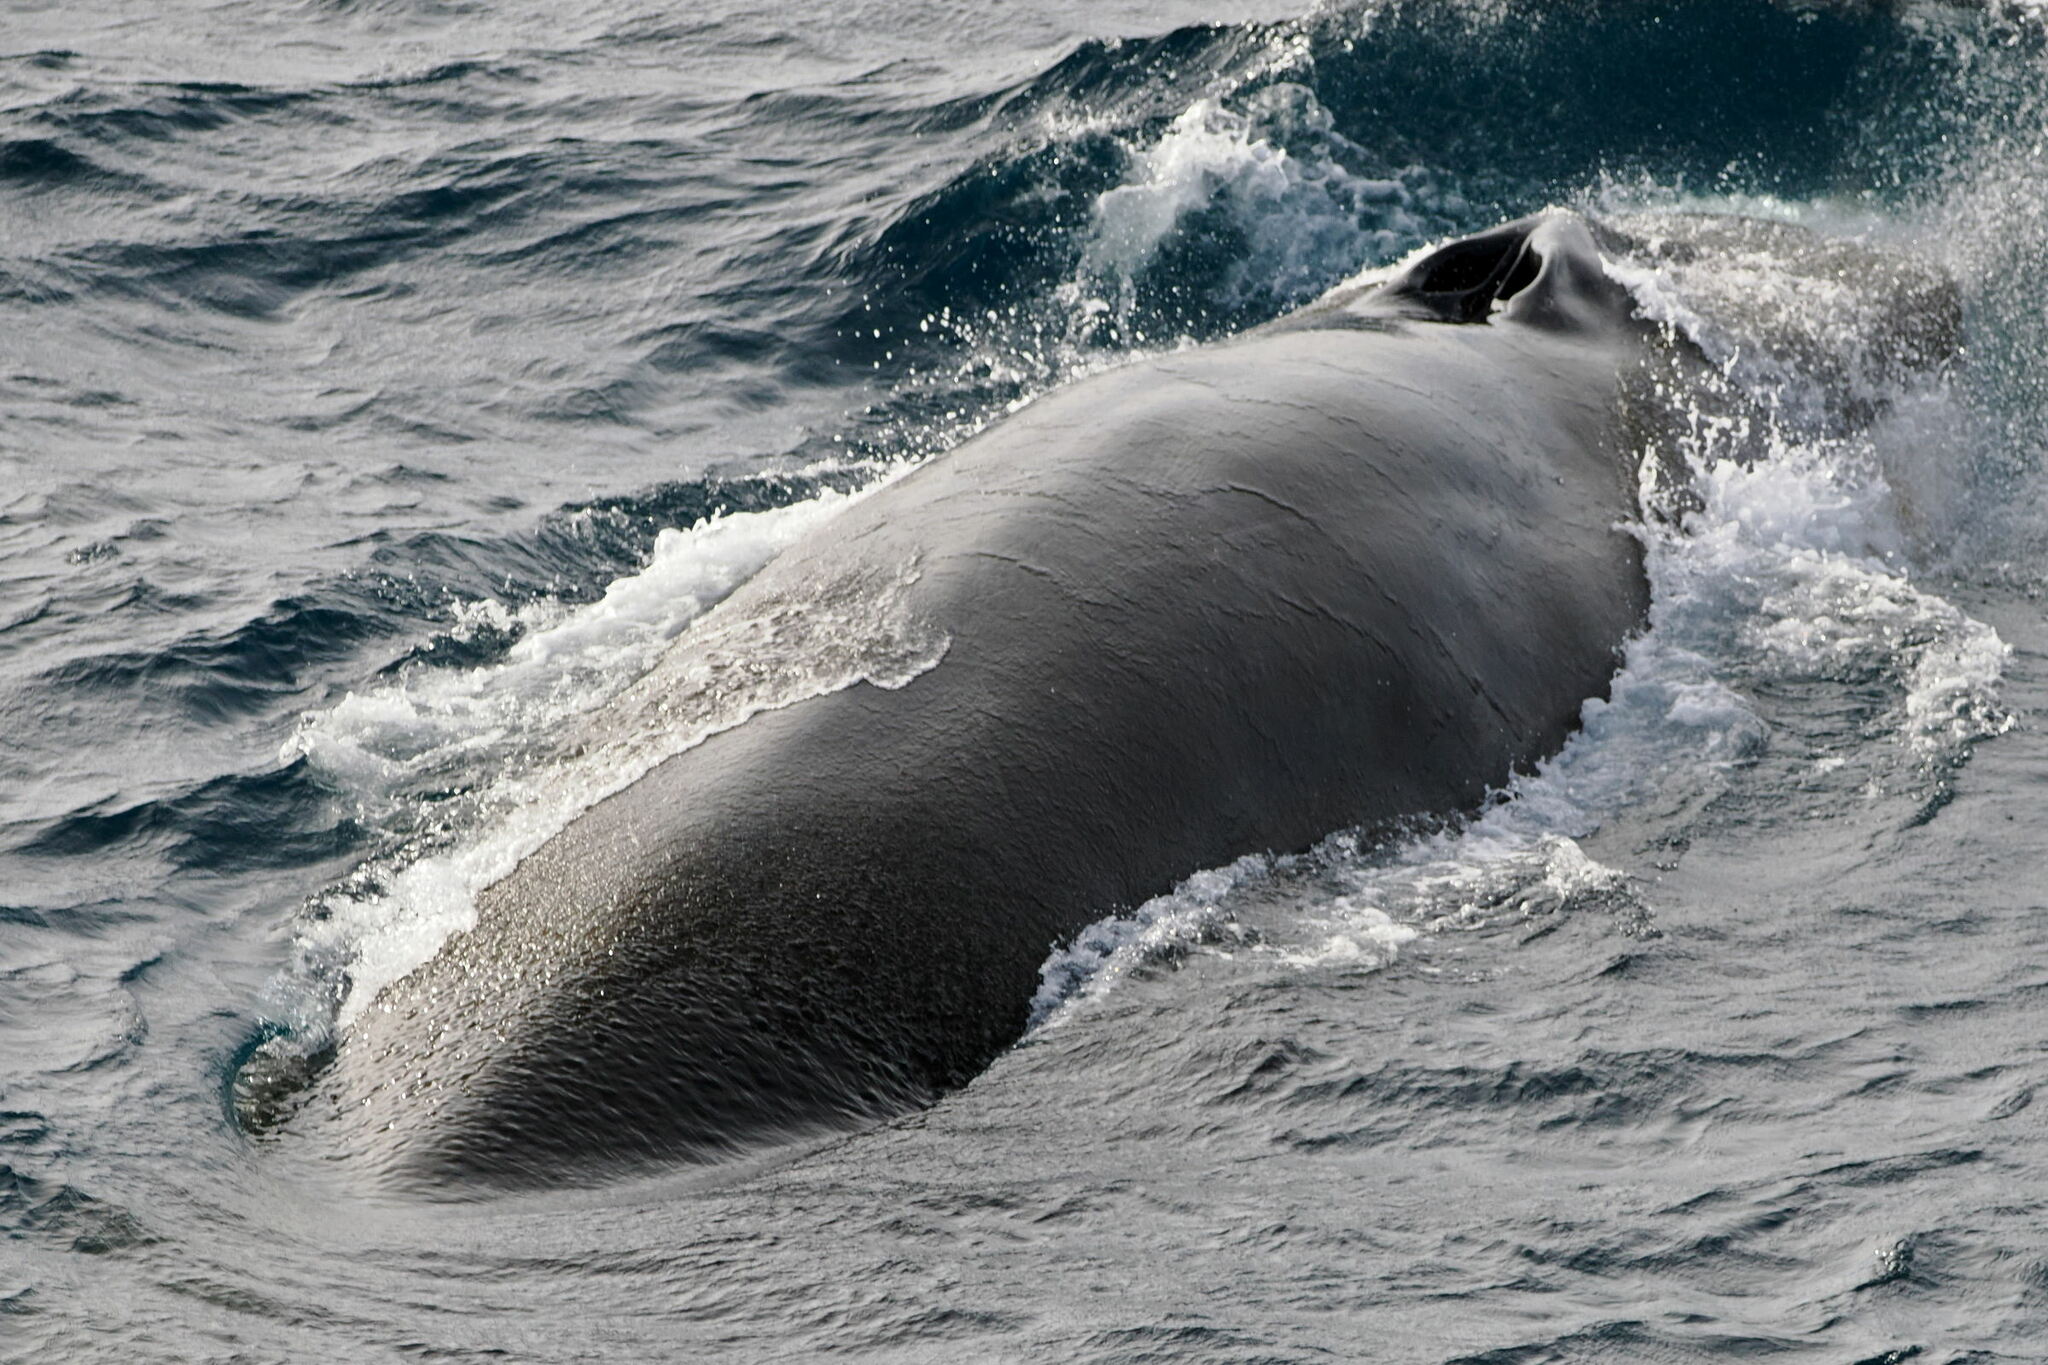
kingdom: Animalia
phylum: Chordata
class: Mammalia
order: Cetacea
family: Balaenopteridae
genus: Balaenoptera
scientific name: Balaenoptera physalus
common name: Fin whale
